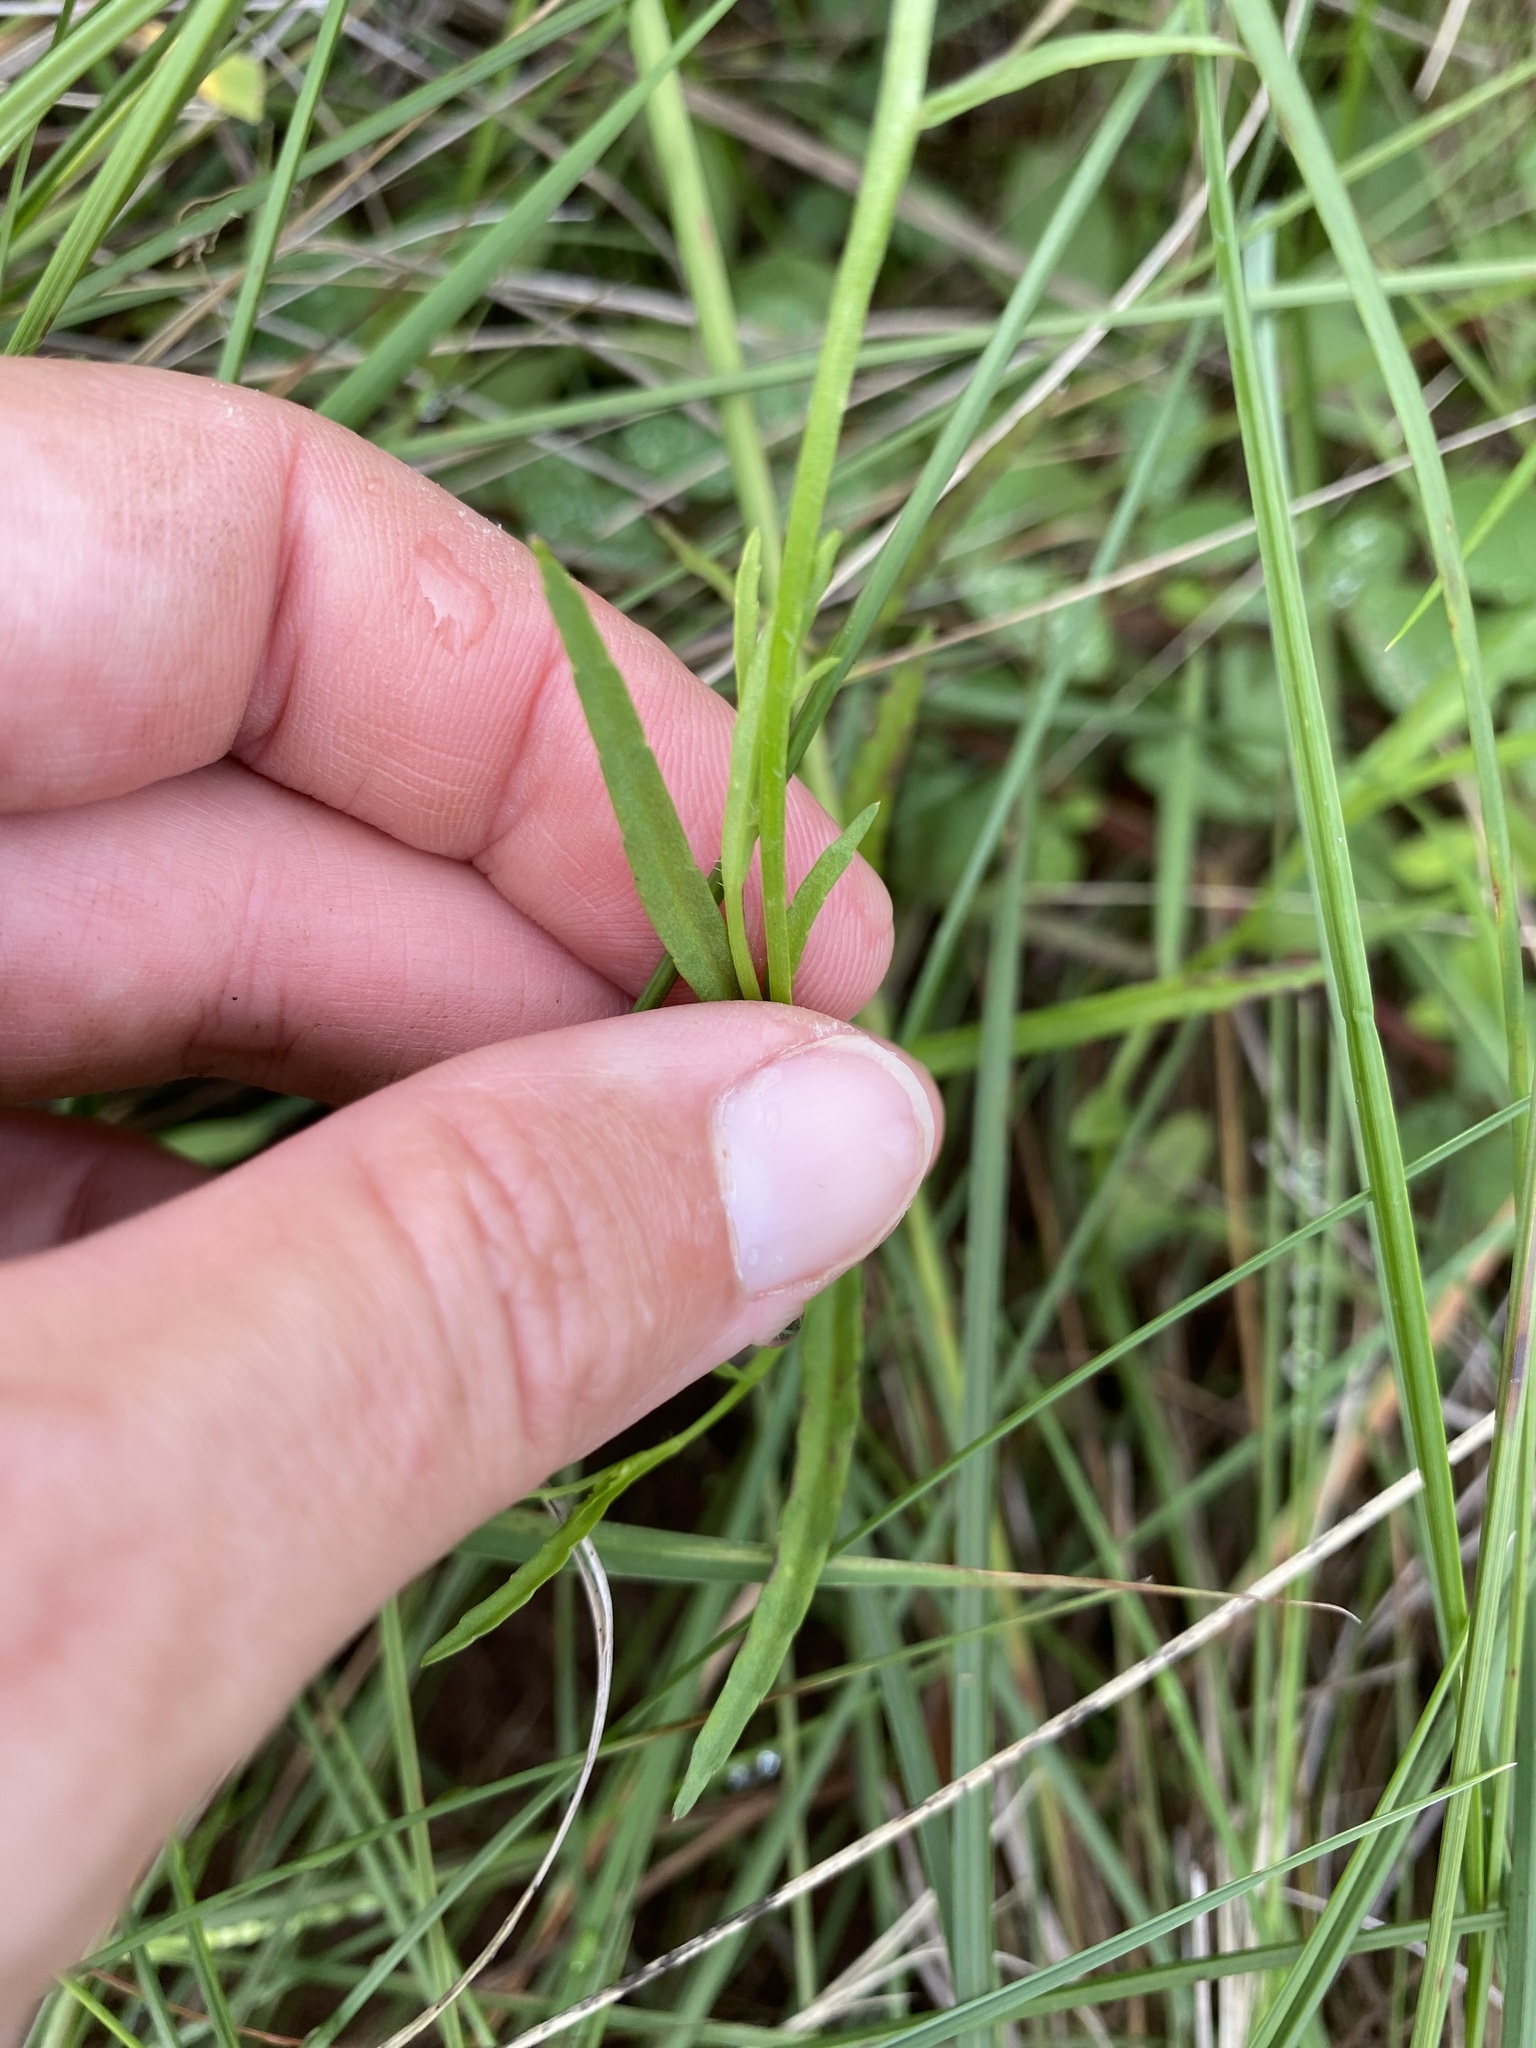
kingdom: Plantae
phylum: Tracheophyta
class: Magnoliopsida
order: Asterales
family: Campanulaceae
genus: Lobelia
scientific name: Lobelia flaccida
